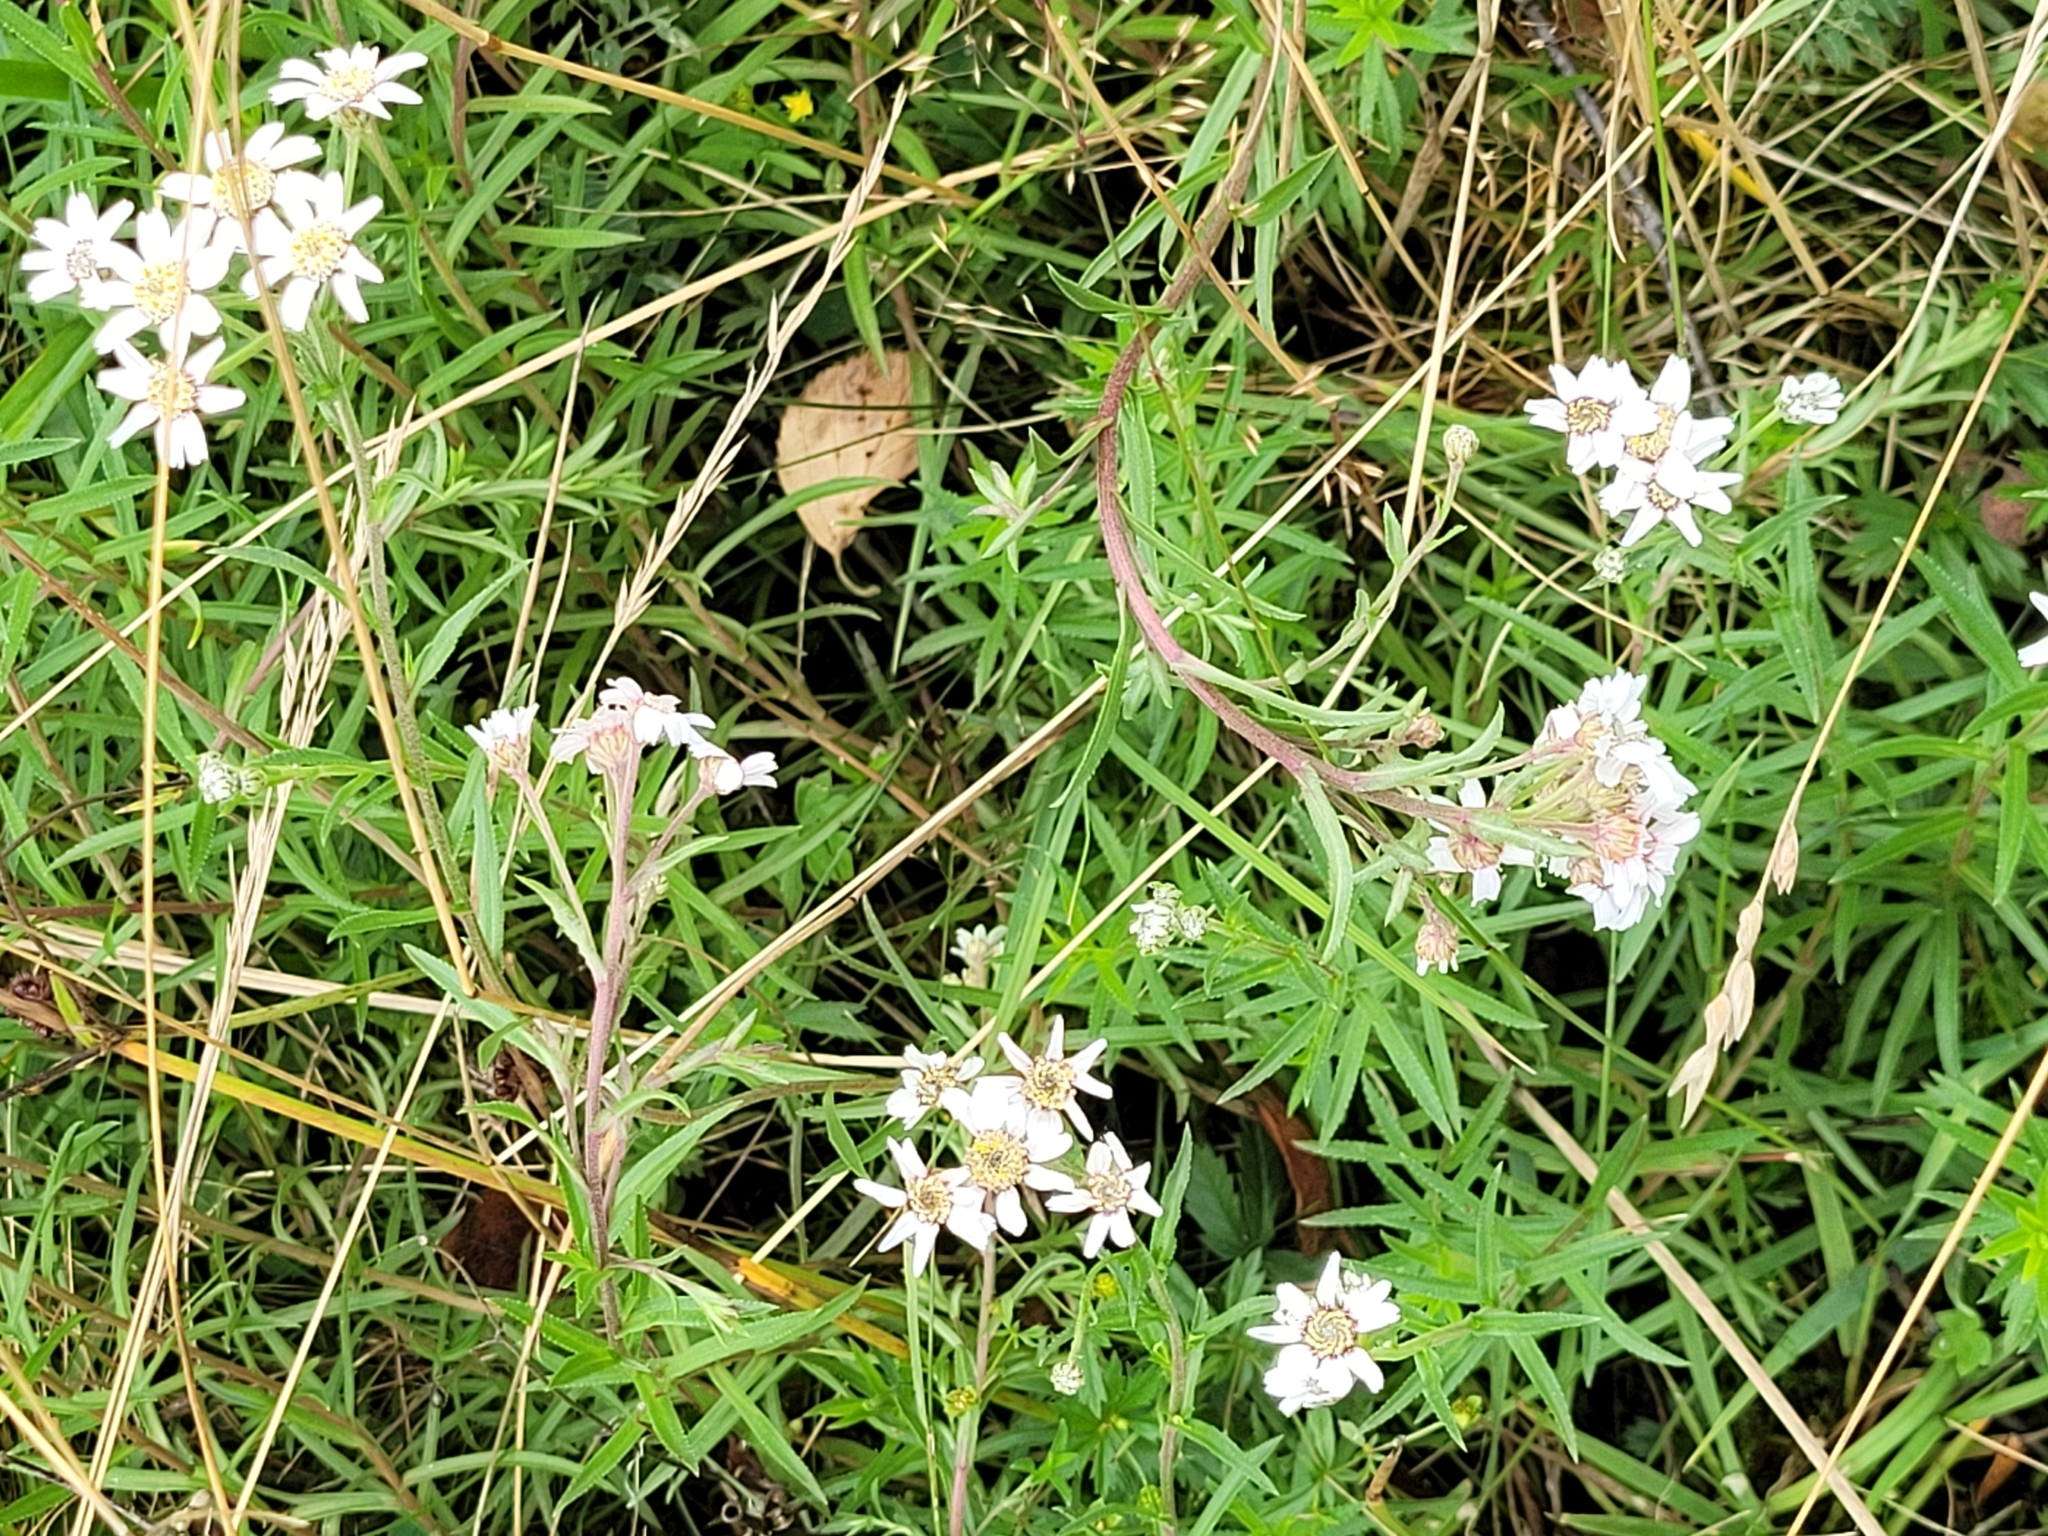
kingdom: Plantae
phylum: Tracheophyta
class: Magnoliopsida
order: Asterales
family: Asteraceae
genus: Achillea
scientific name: Achillea ptarmica
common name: Sneezeweed
